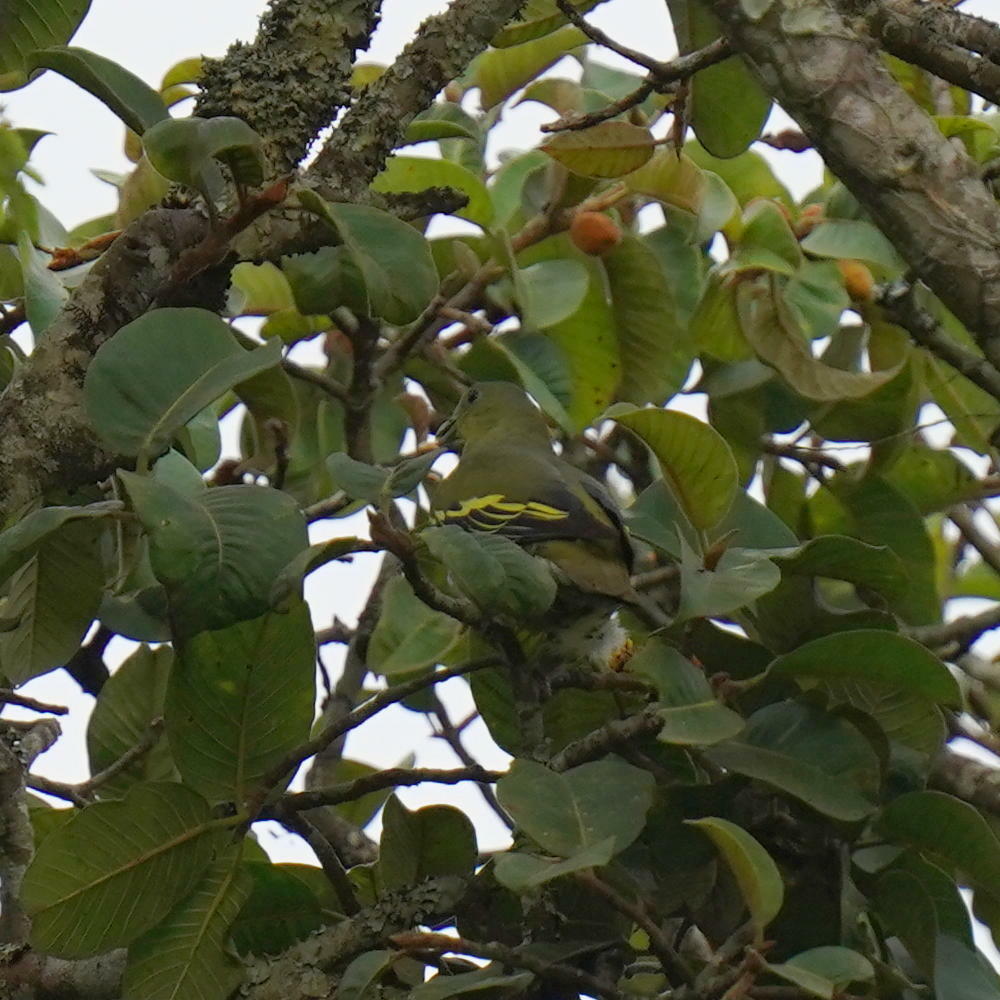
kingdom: Animalia
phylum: Chordata
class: Aves
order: Columbiformes
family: Columbidae
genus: Treron
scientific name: Treron affinis
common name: Grey-fronted green pigeon
